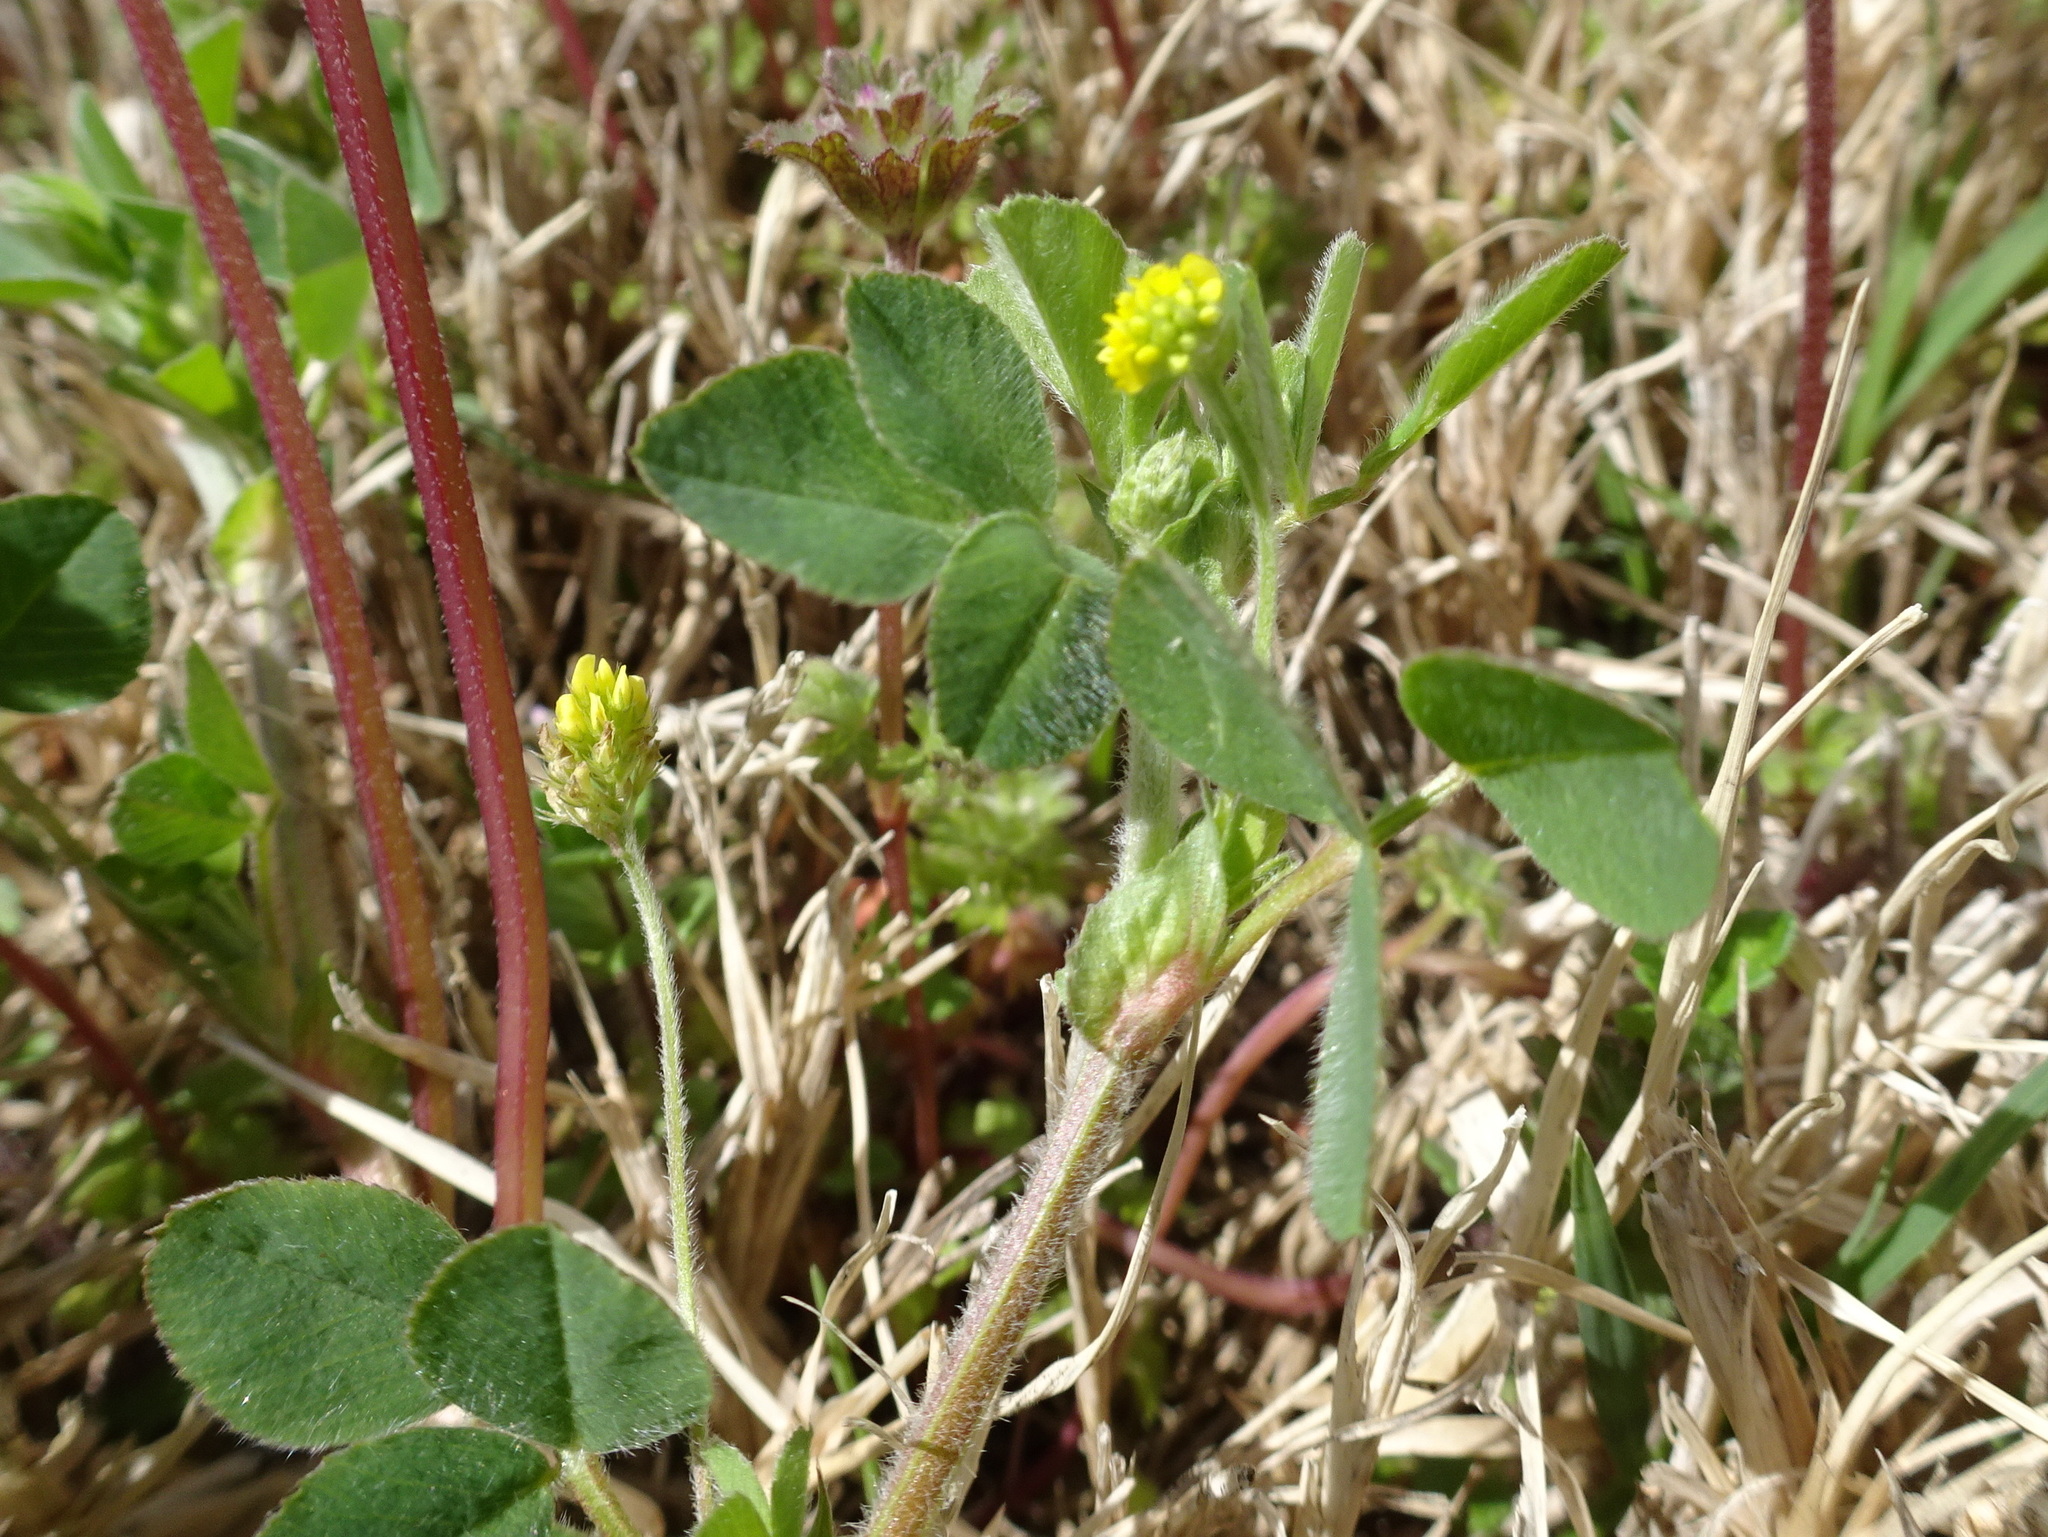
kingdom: Plantae
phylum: Tracheophyta
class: Magnoliopsida
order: Fabales
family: Fabaceae
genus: Medicago
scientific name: Medicago lupulina
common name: Black medick
